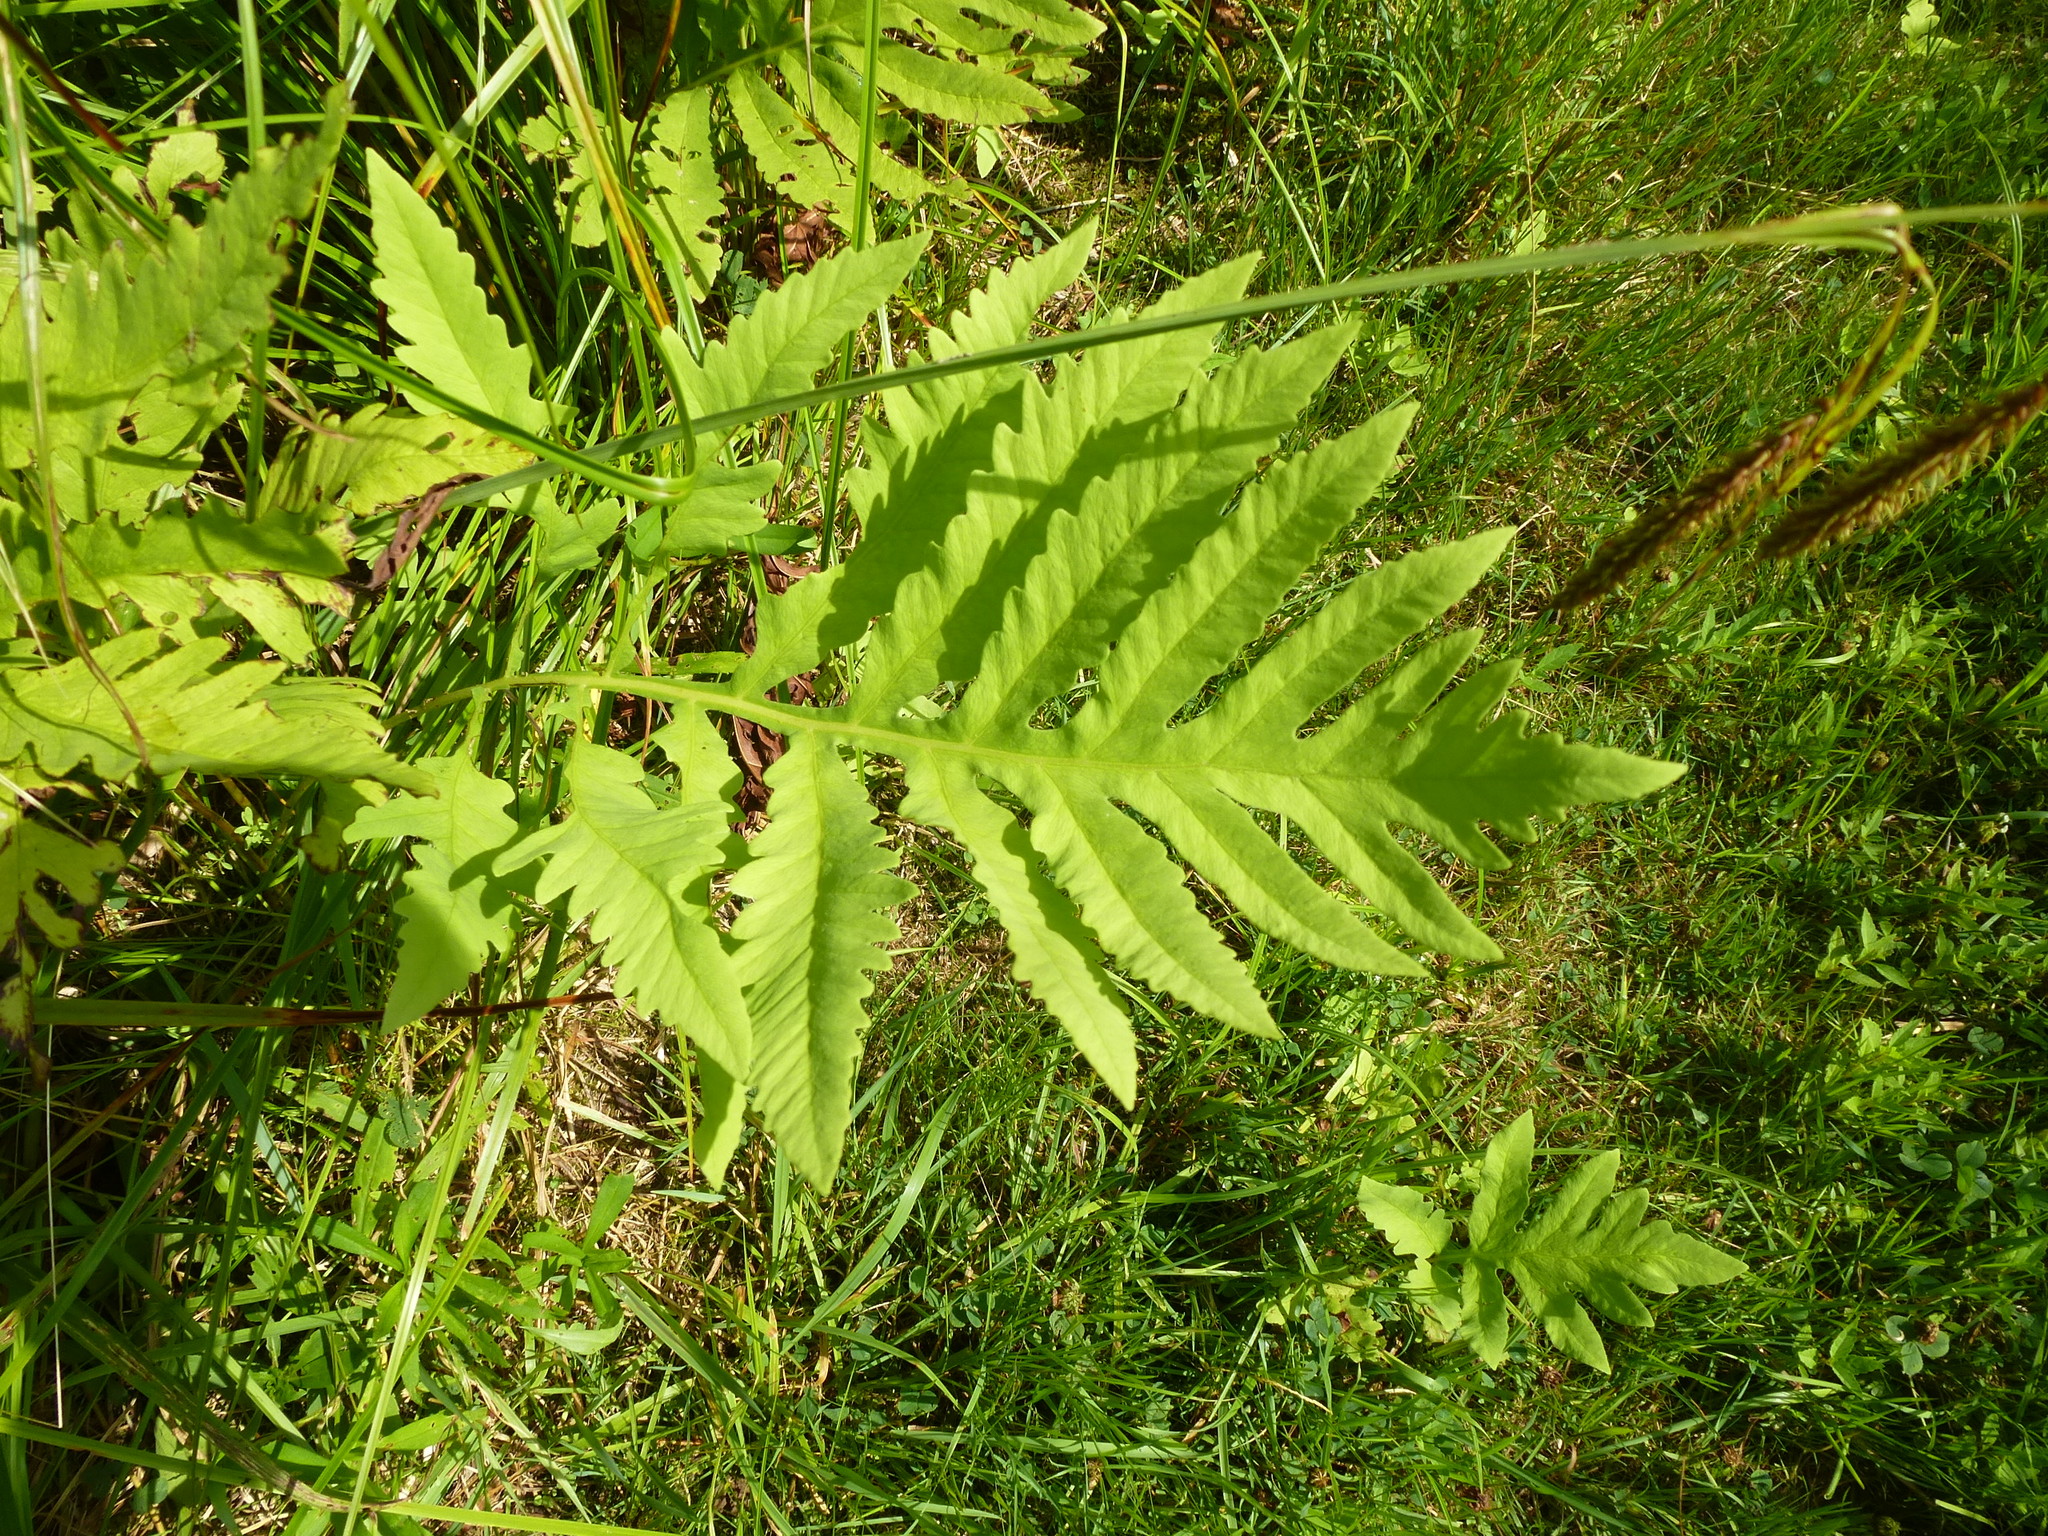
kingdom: Plantae
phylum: Tracheophyta
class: Polypodiopsida
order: Polypodiales
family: Onocleaceae
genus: Onoclea
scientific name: Onoclea sensibilis
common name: Sensitive fern
